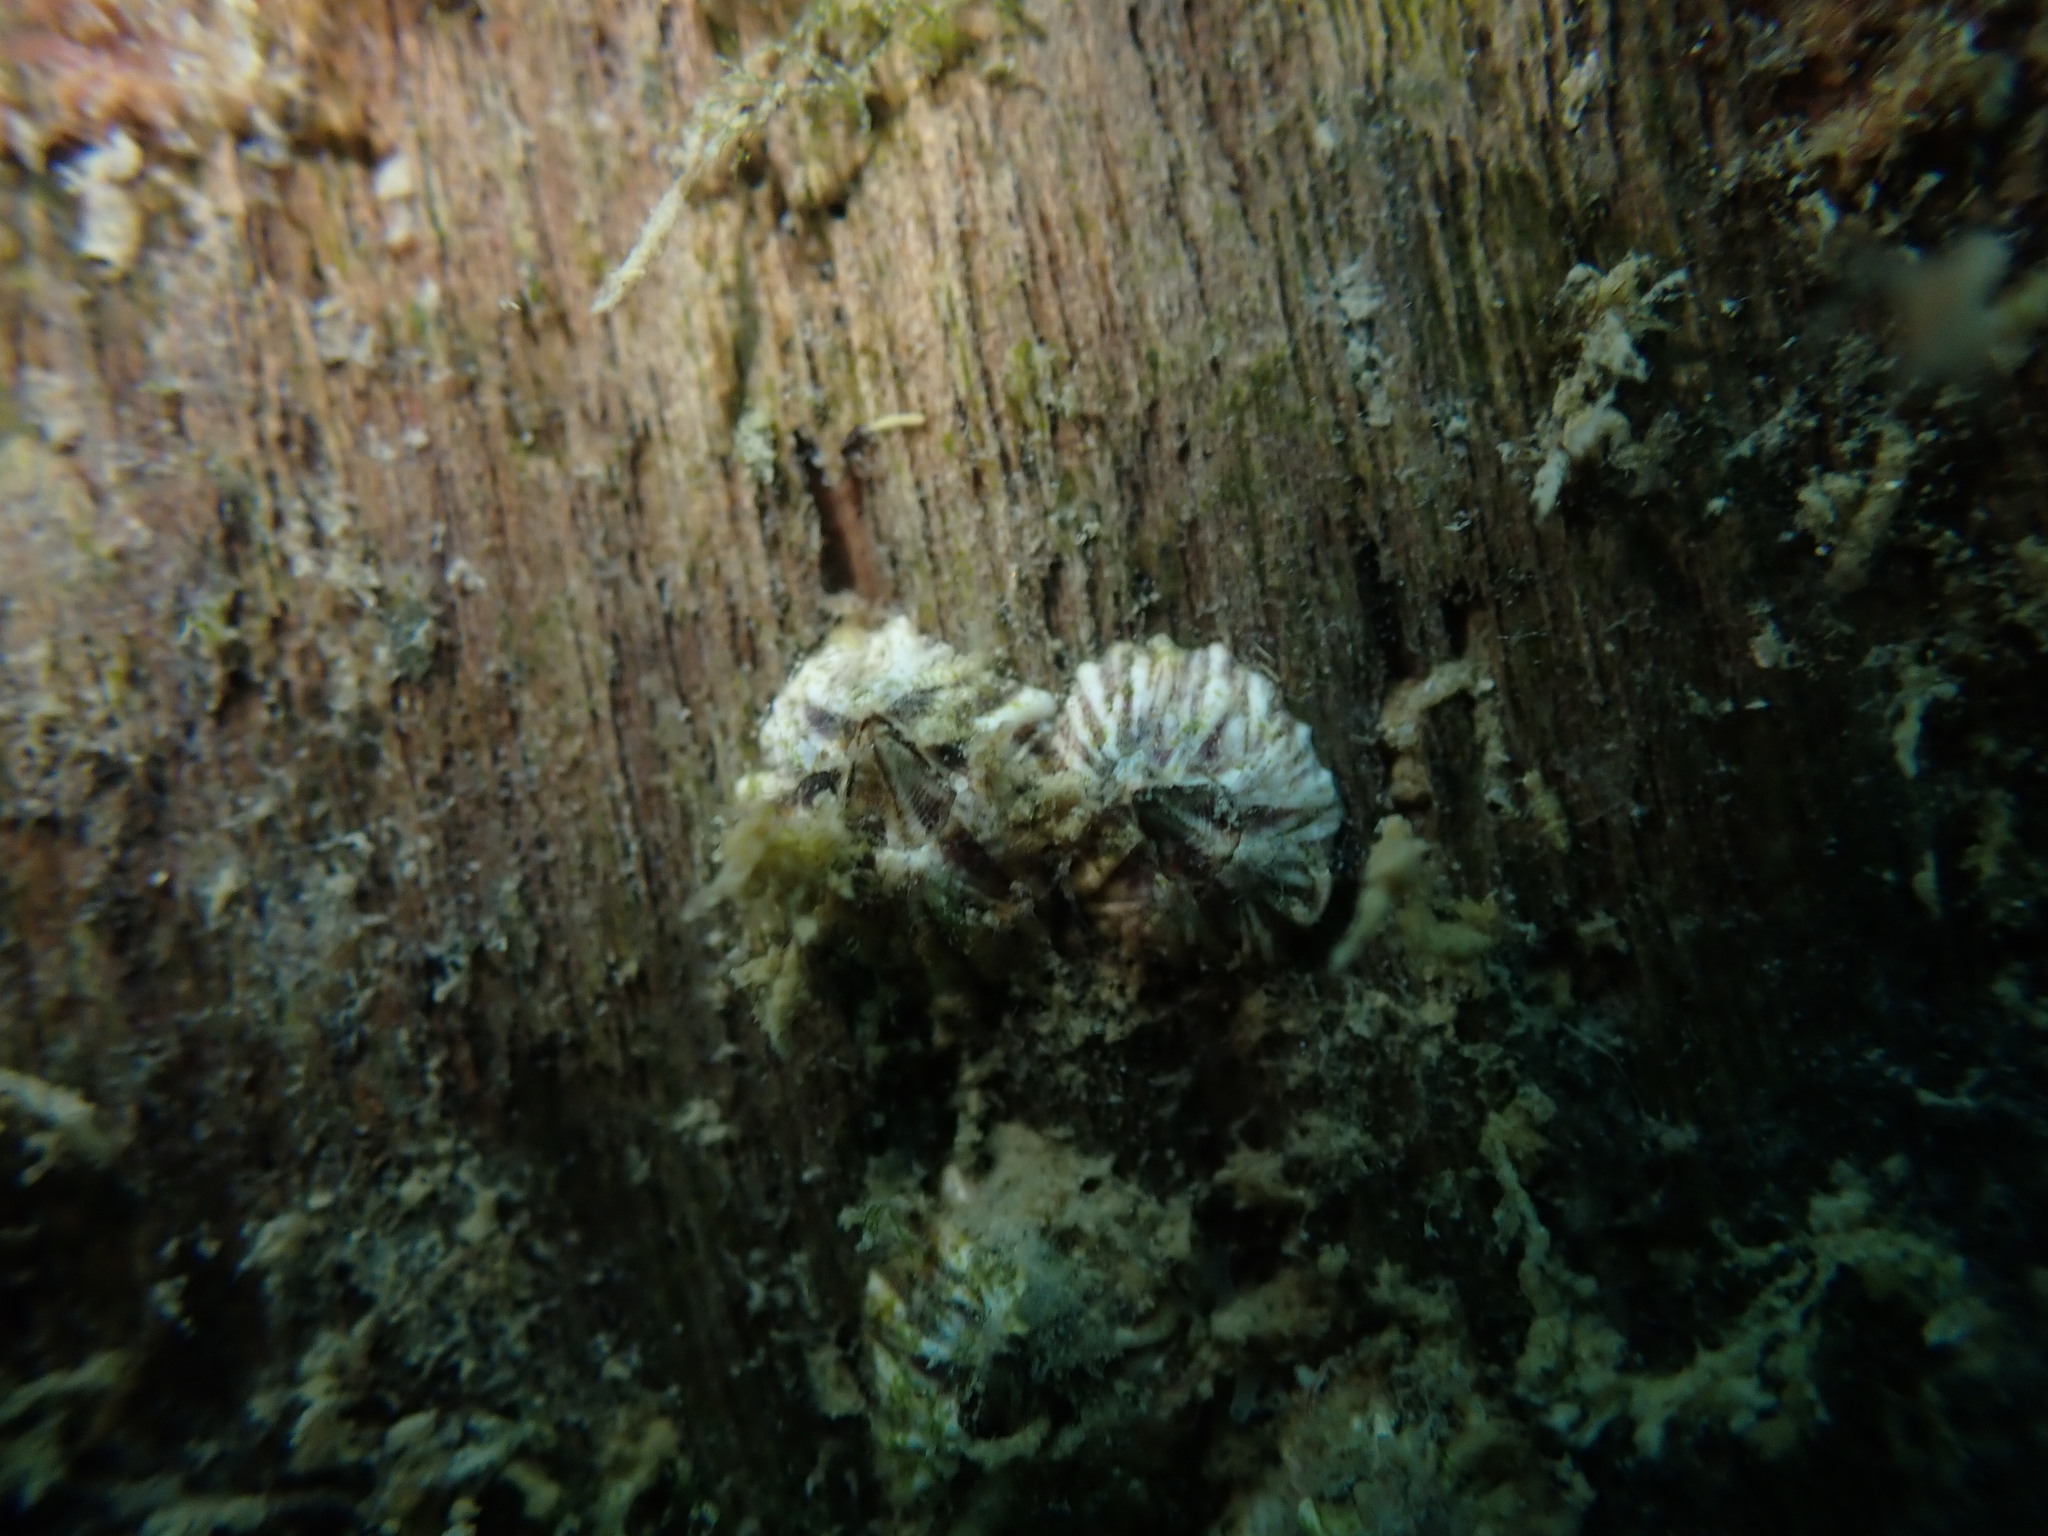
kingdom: Animalia
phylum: Arthropoda
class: Maxillopoda
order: Sessilia
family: Balanidae
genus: Balanus
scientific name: Balanus trigonus
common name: Triangle barnacle
